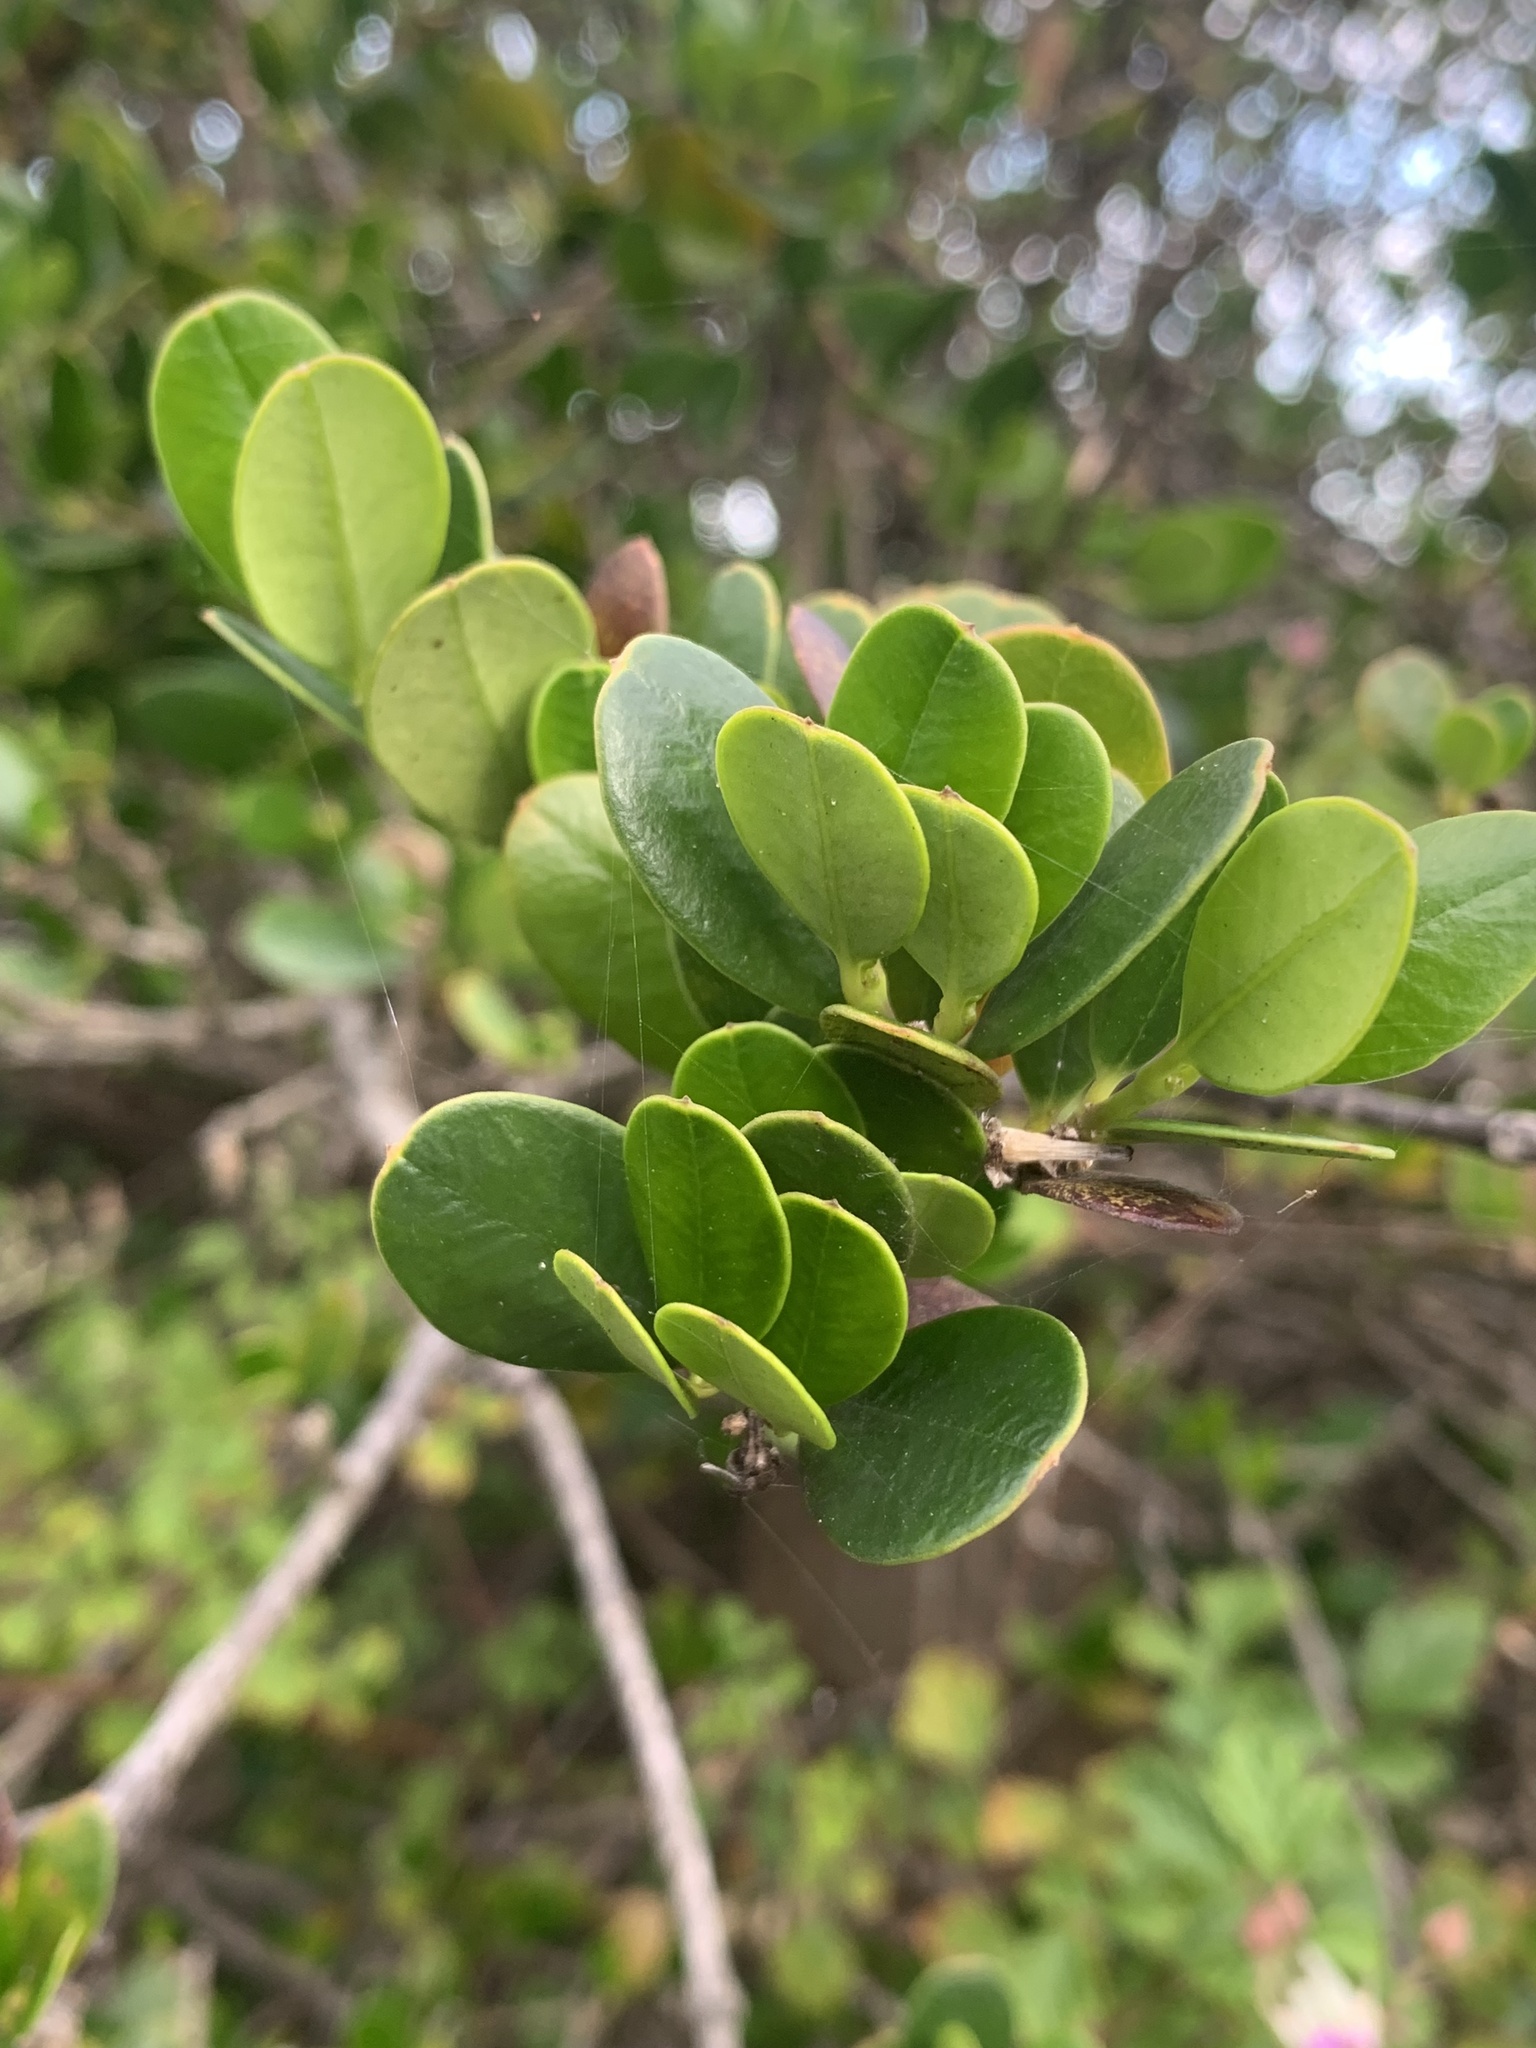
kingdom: Plantae
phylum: Tracheophyta
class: Magnoliopsida
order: Gentianales
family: Apocynaceae
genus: Alyxia
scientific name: Alyxia buxifolia
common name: Dysentery-bush
